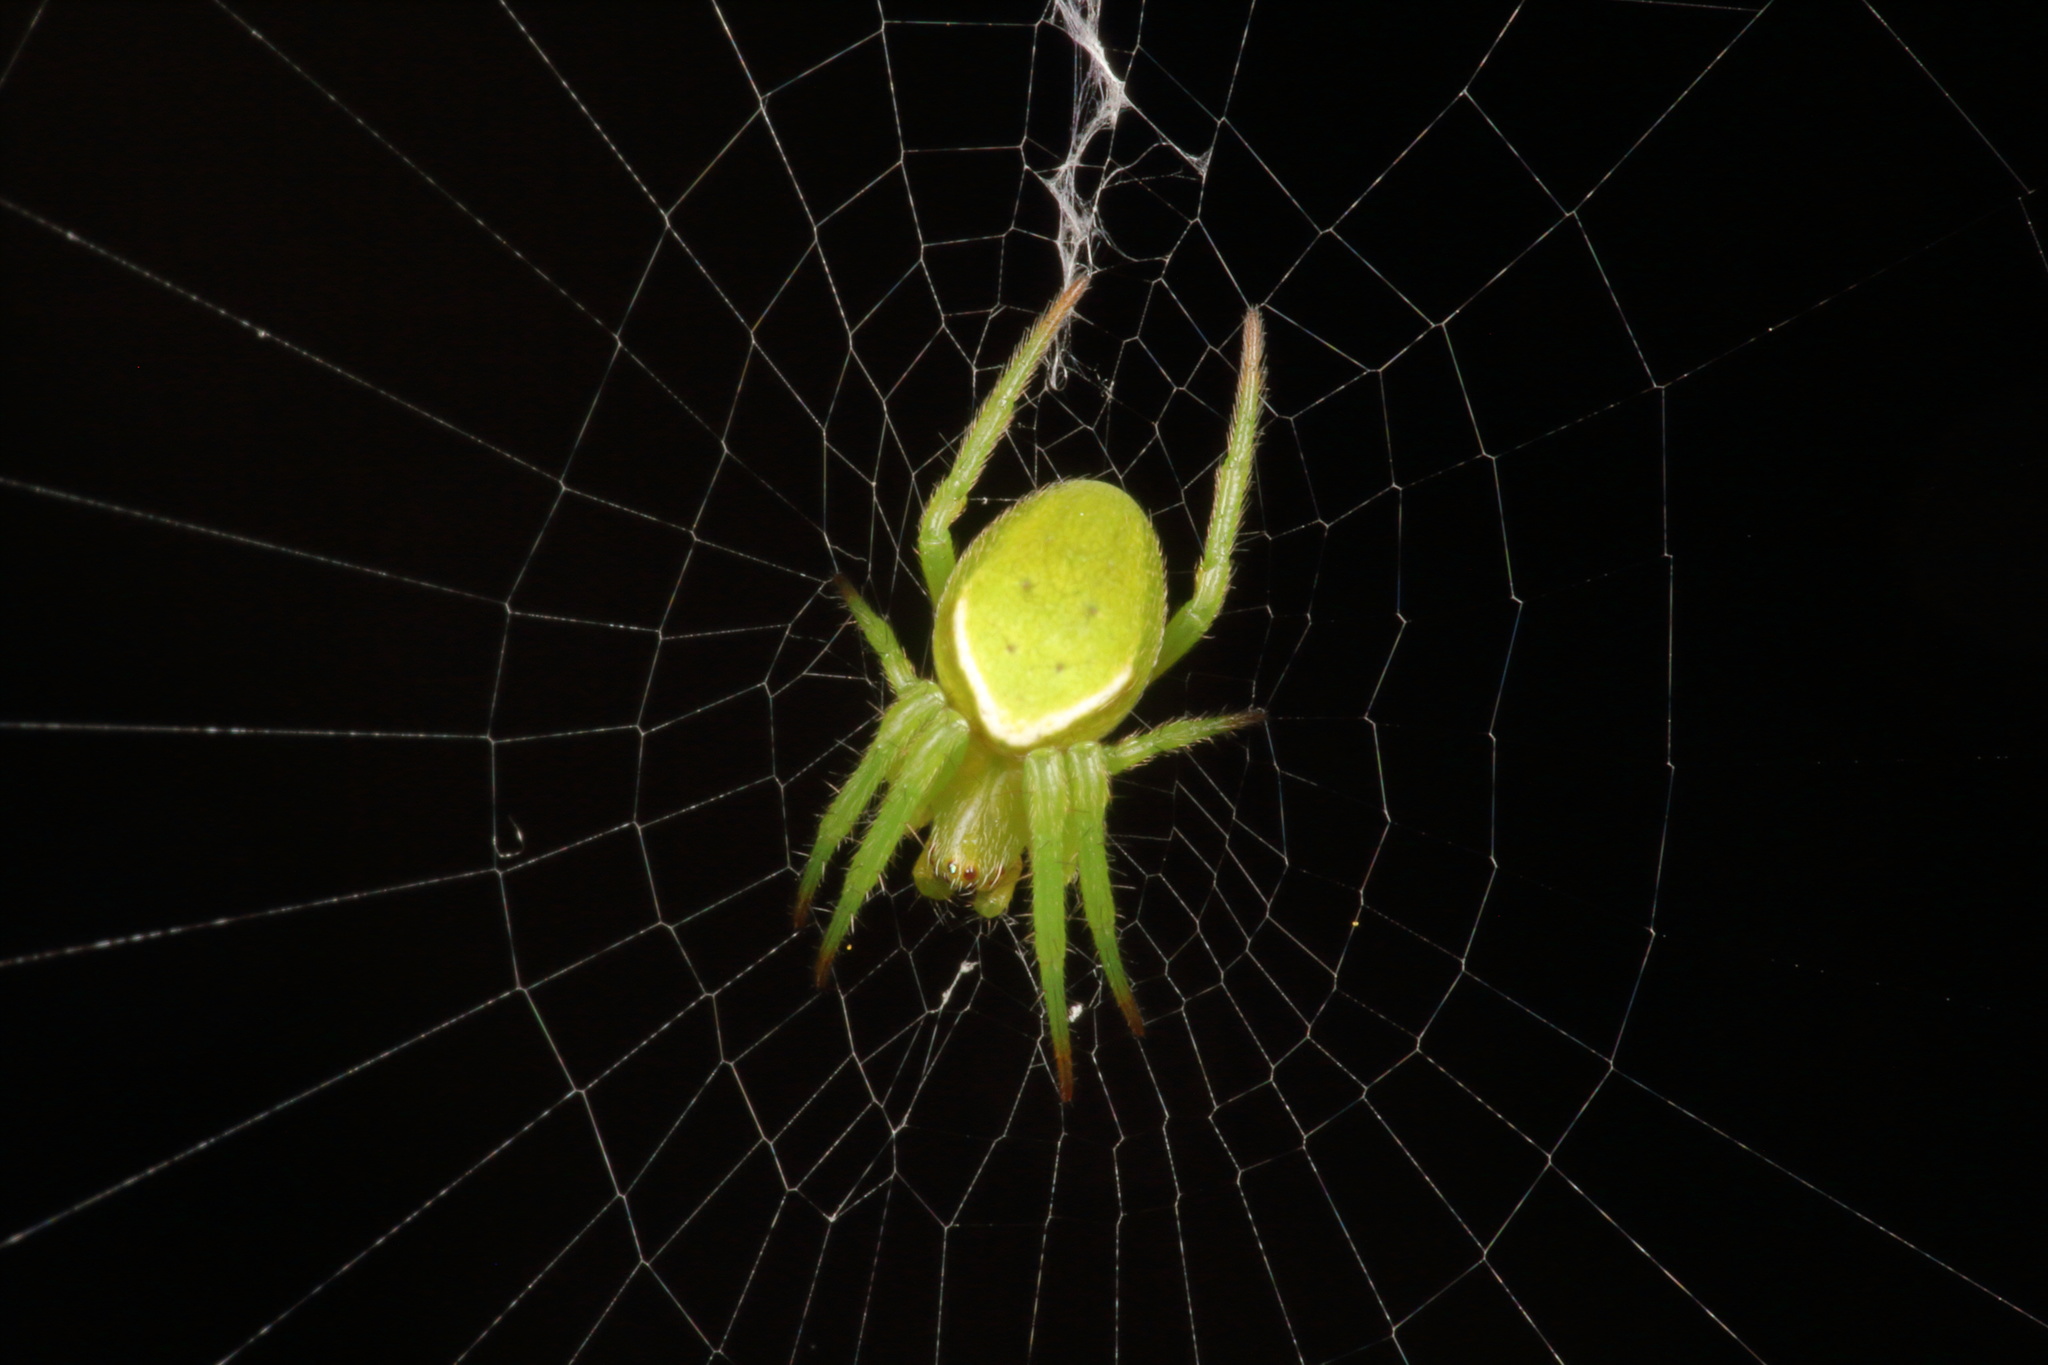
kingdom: Animalia
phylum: Arthropoda
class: Arachnida
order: Araneae
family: Araneidae
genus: Colaranea
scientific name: Colaranea viriditas
